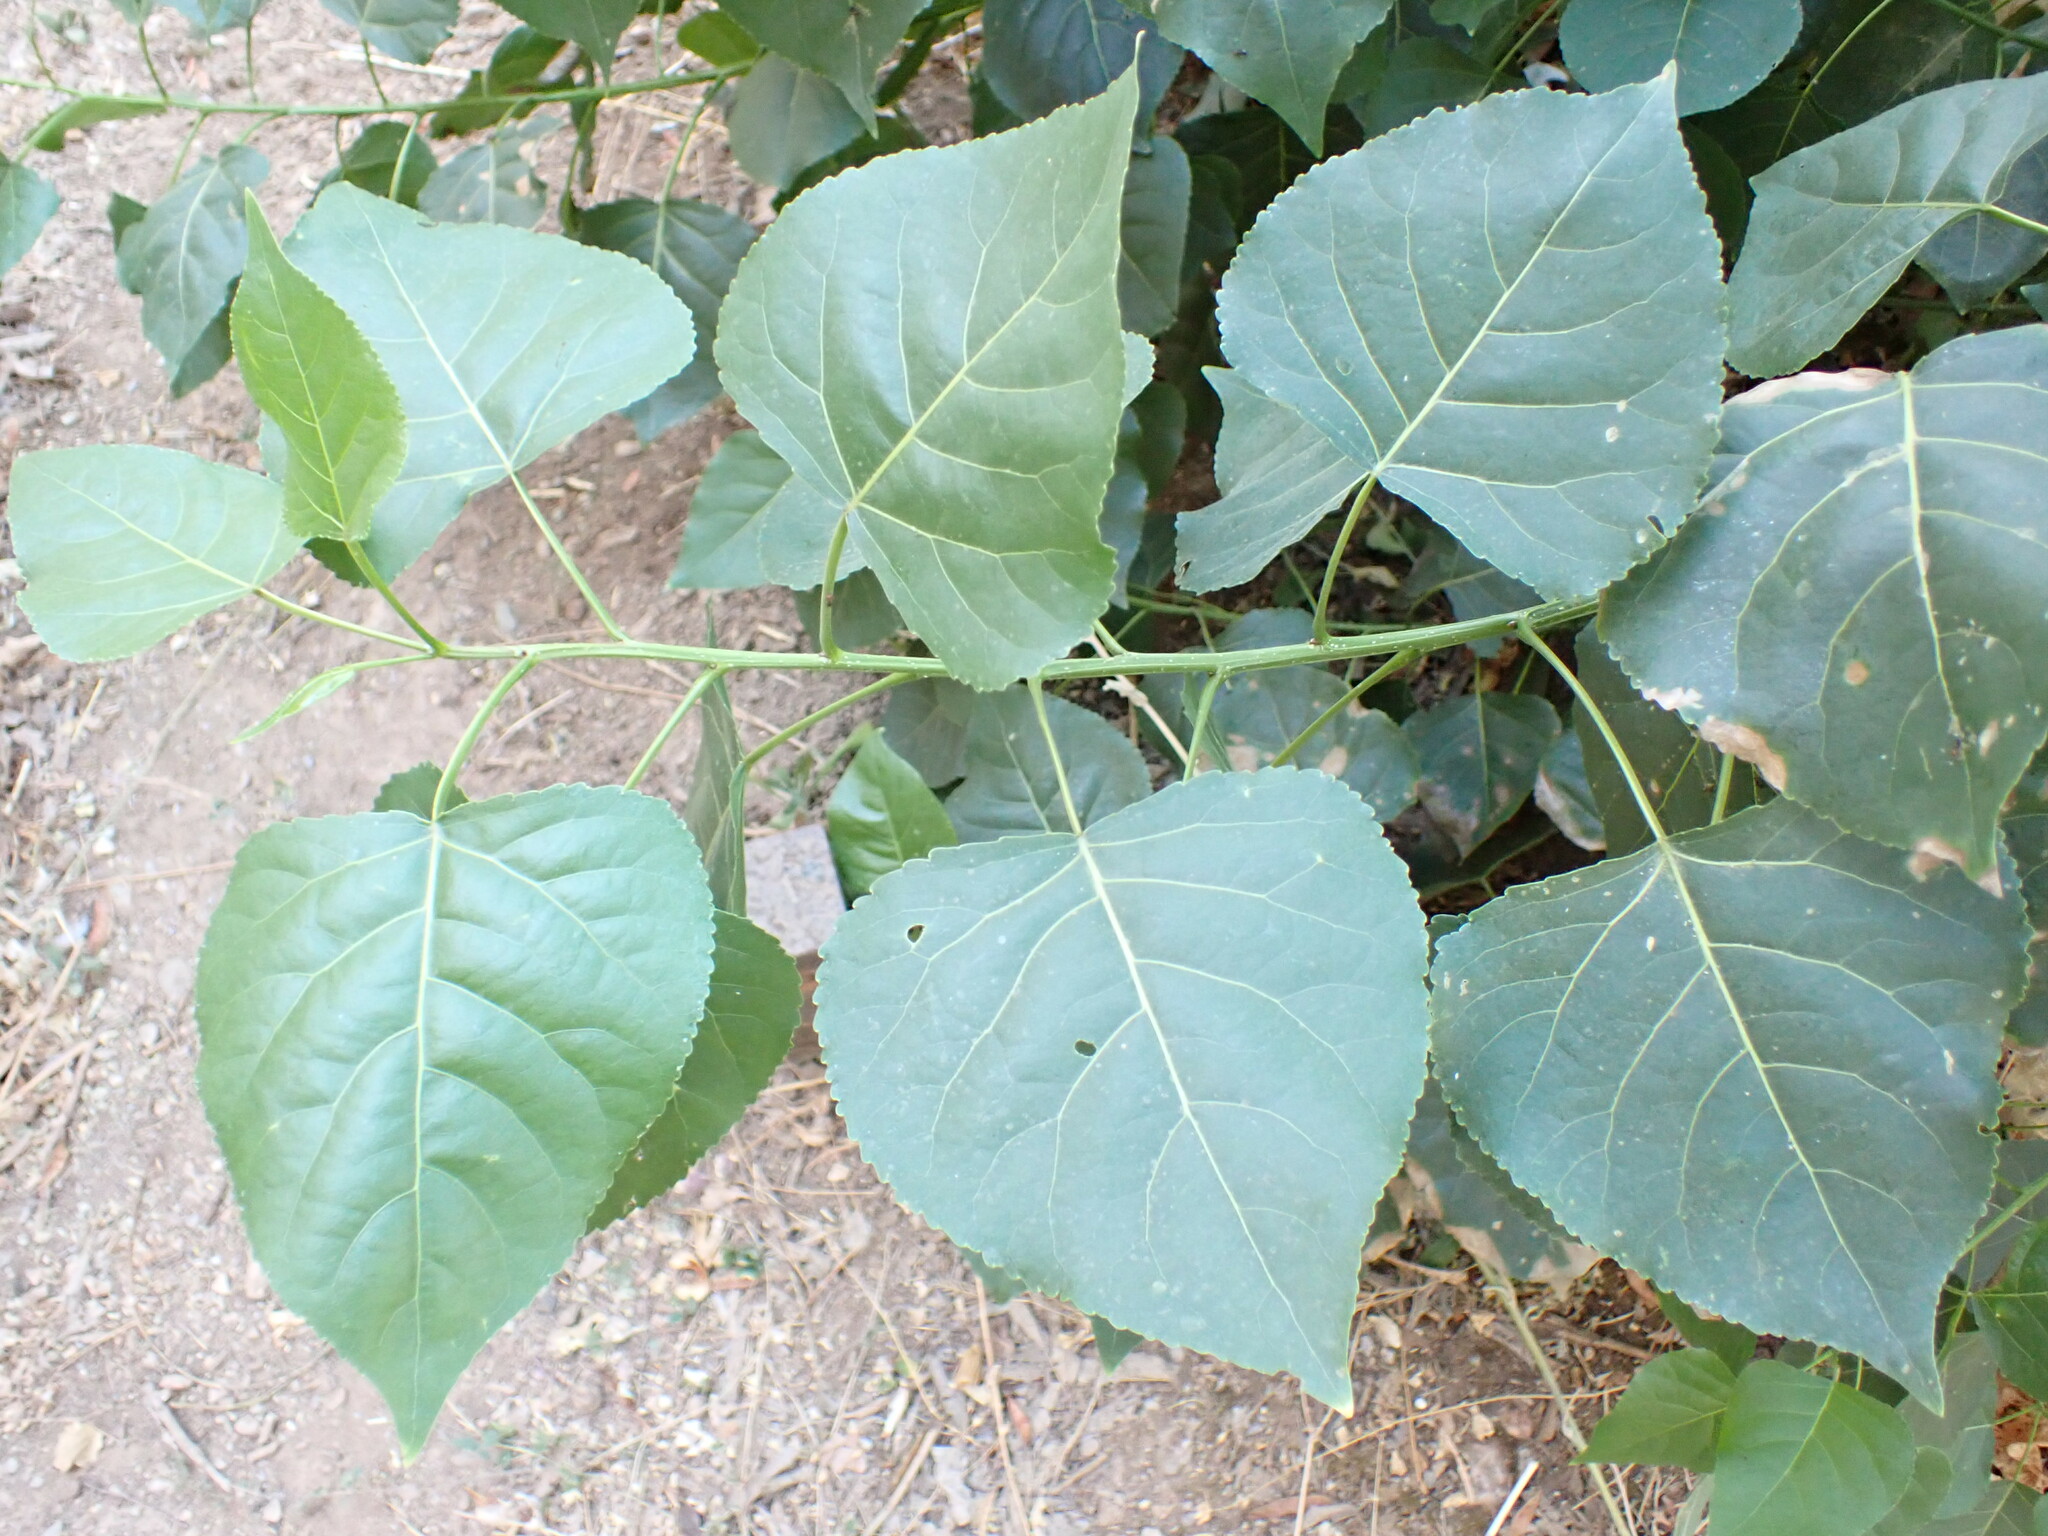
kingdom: Plantae
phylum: Tracheophyta
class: Magnoliopsida
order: Malpighiales
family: Salicaceae
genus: Populus
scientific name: Populus canadensis
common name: Carolina poplar
